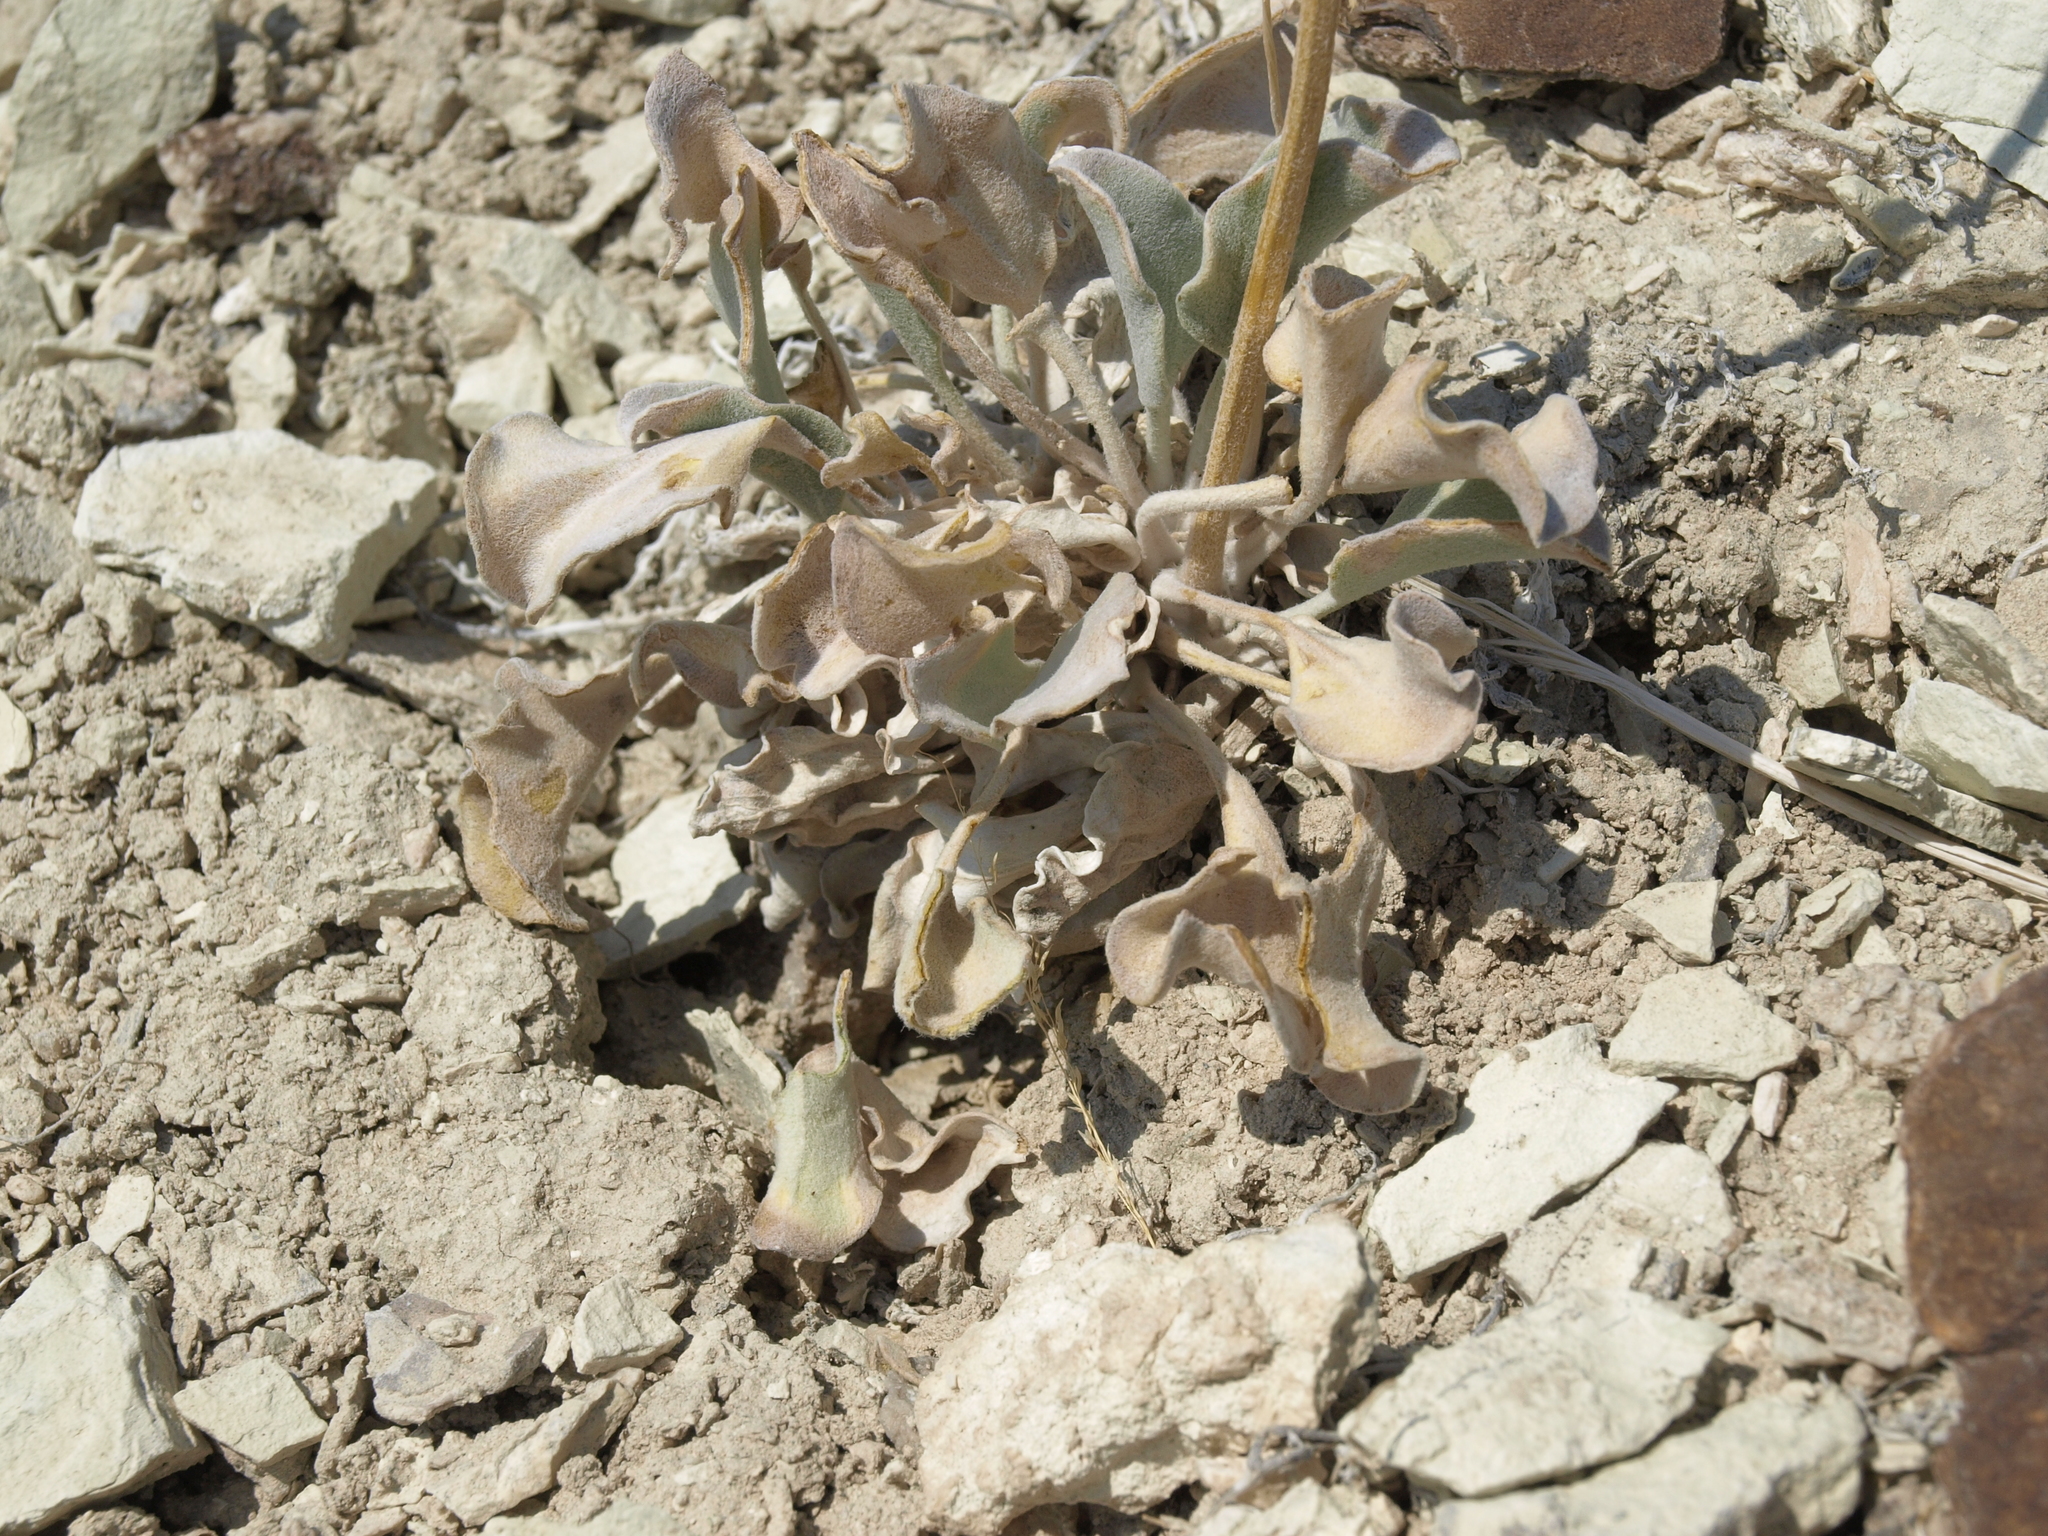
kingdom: Plantae
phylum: Tracheophyta
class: Magnoliopsida
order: Asterales
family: Asteraceae
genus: Enceliopsis
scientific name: Enceliopsis nudicaulis
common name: Naked-stem daisy
